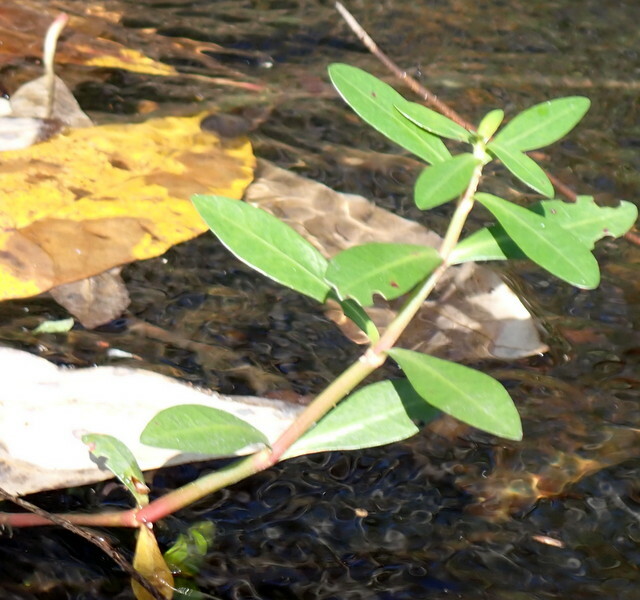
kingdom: Plantae
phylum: Tracheophyta
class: Magnoliopsida
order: Caryophyllales
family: Amaranthaceae
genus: Alternanthera
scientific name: Alternanthera philoxeroides
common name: Alligatorweed
